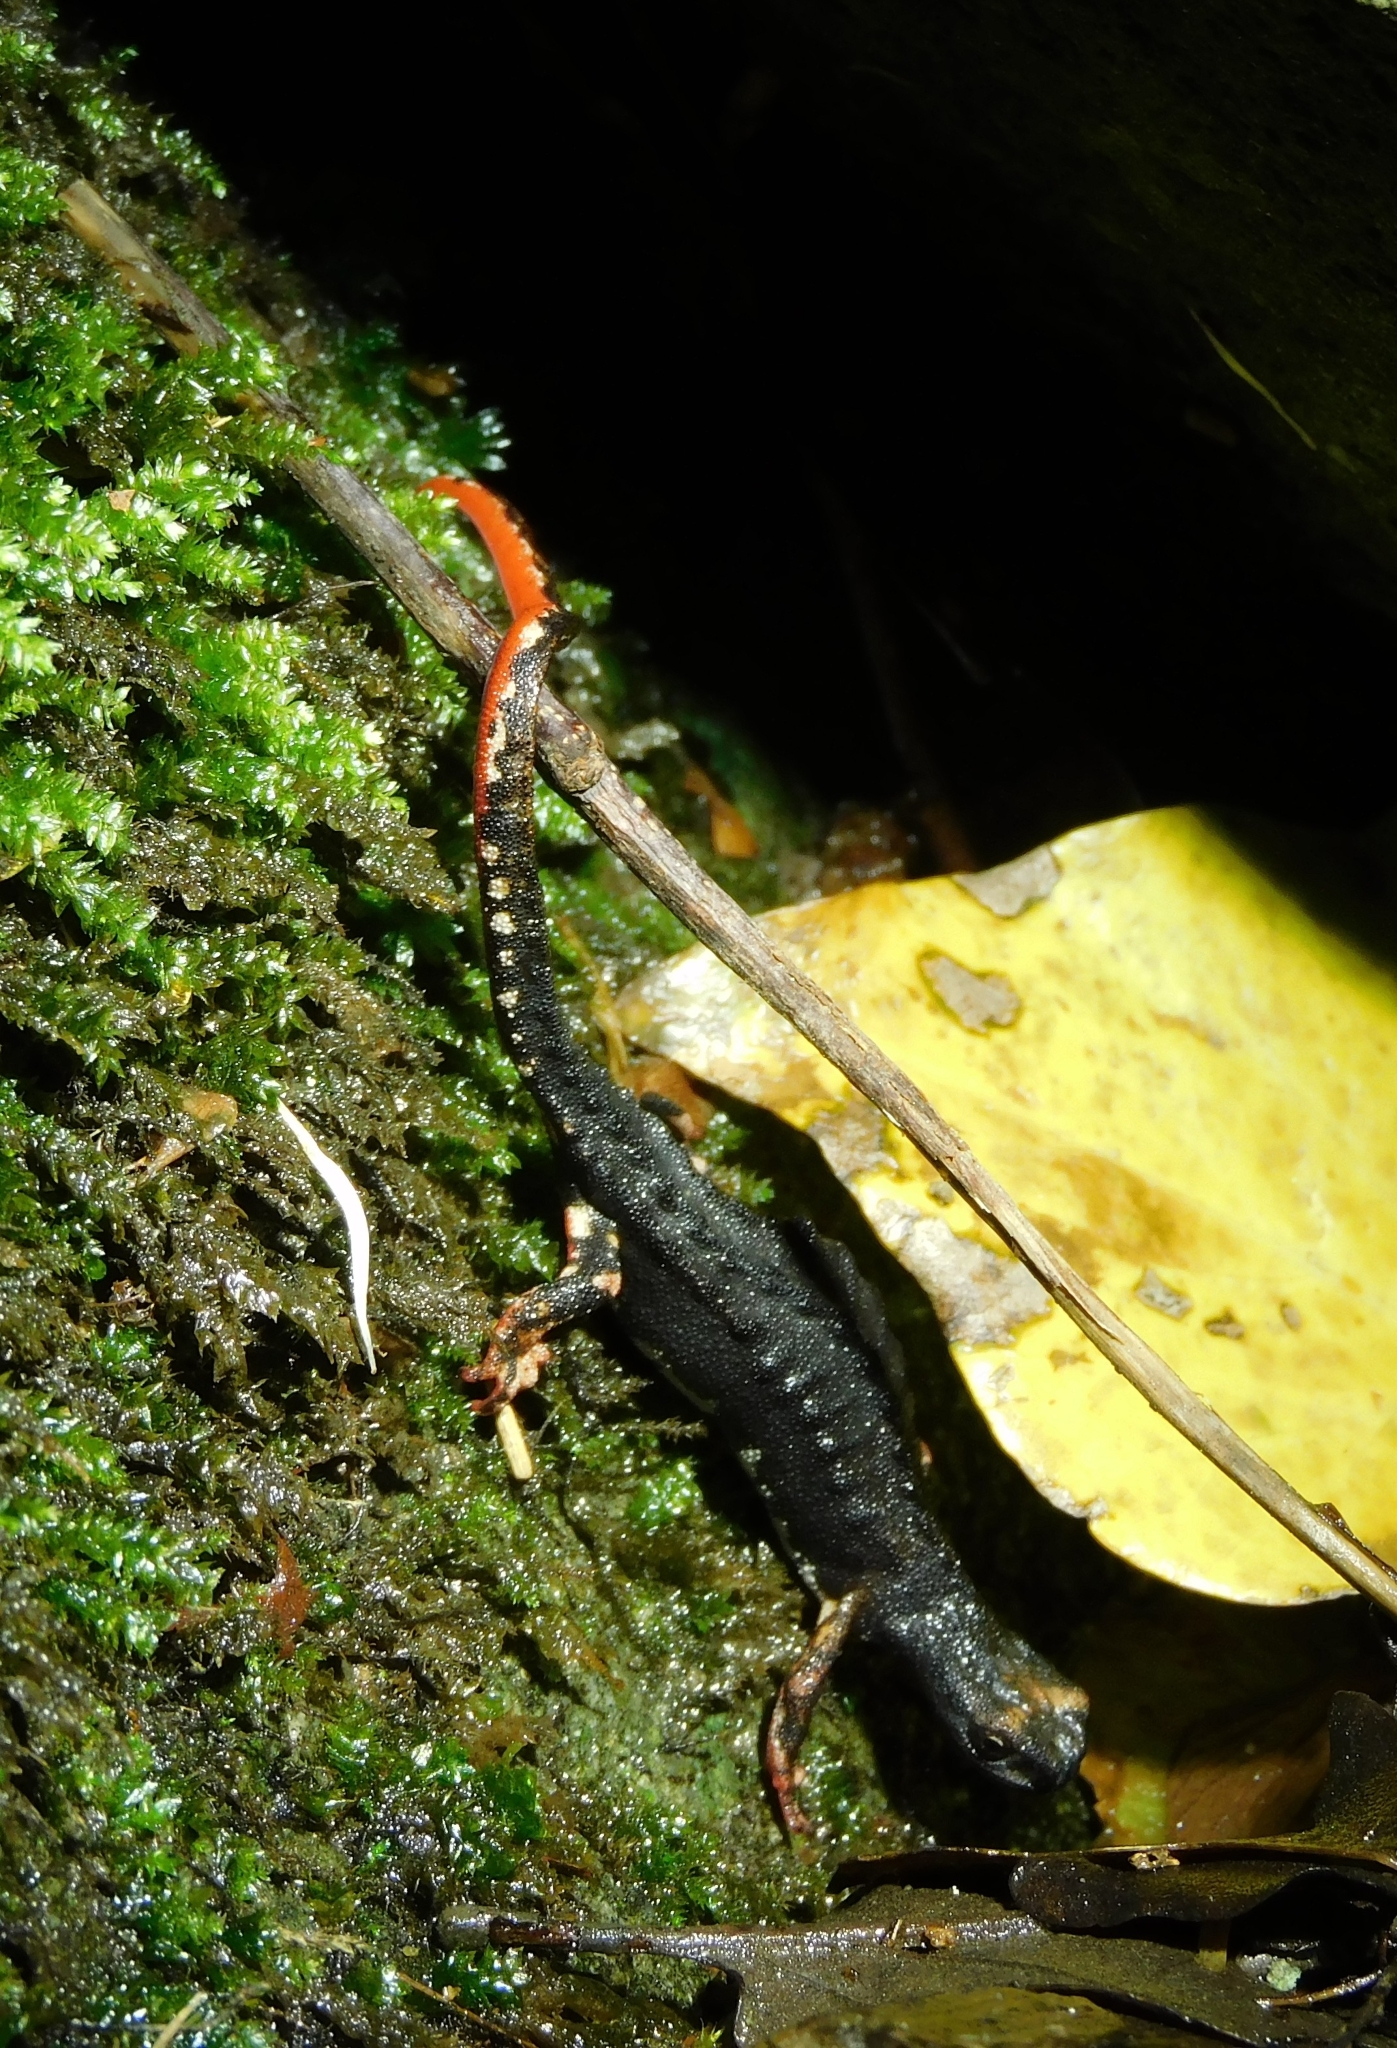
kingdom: Animalia
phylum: Chordata
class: Amphibia
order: Caudata
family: Salamandridae
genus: Salamandrina
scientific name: Salamandrina perspicillata
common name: Northern spectacled salamander
